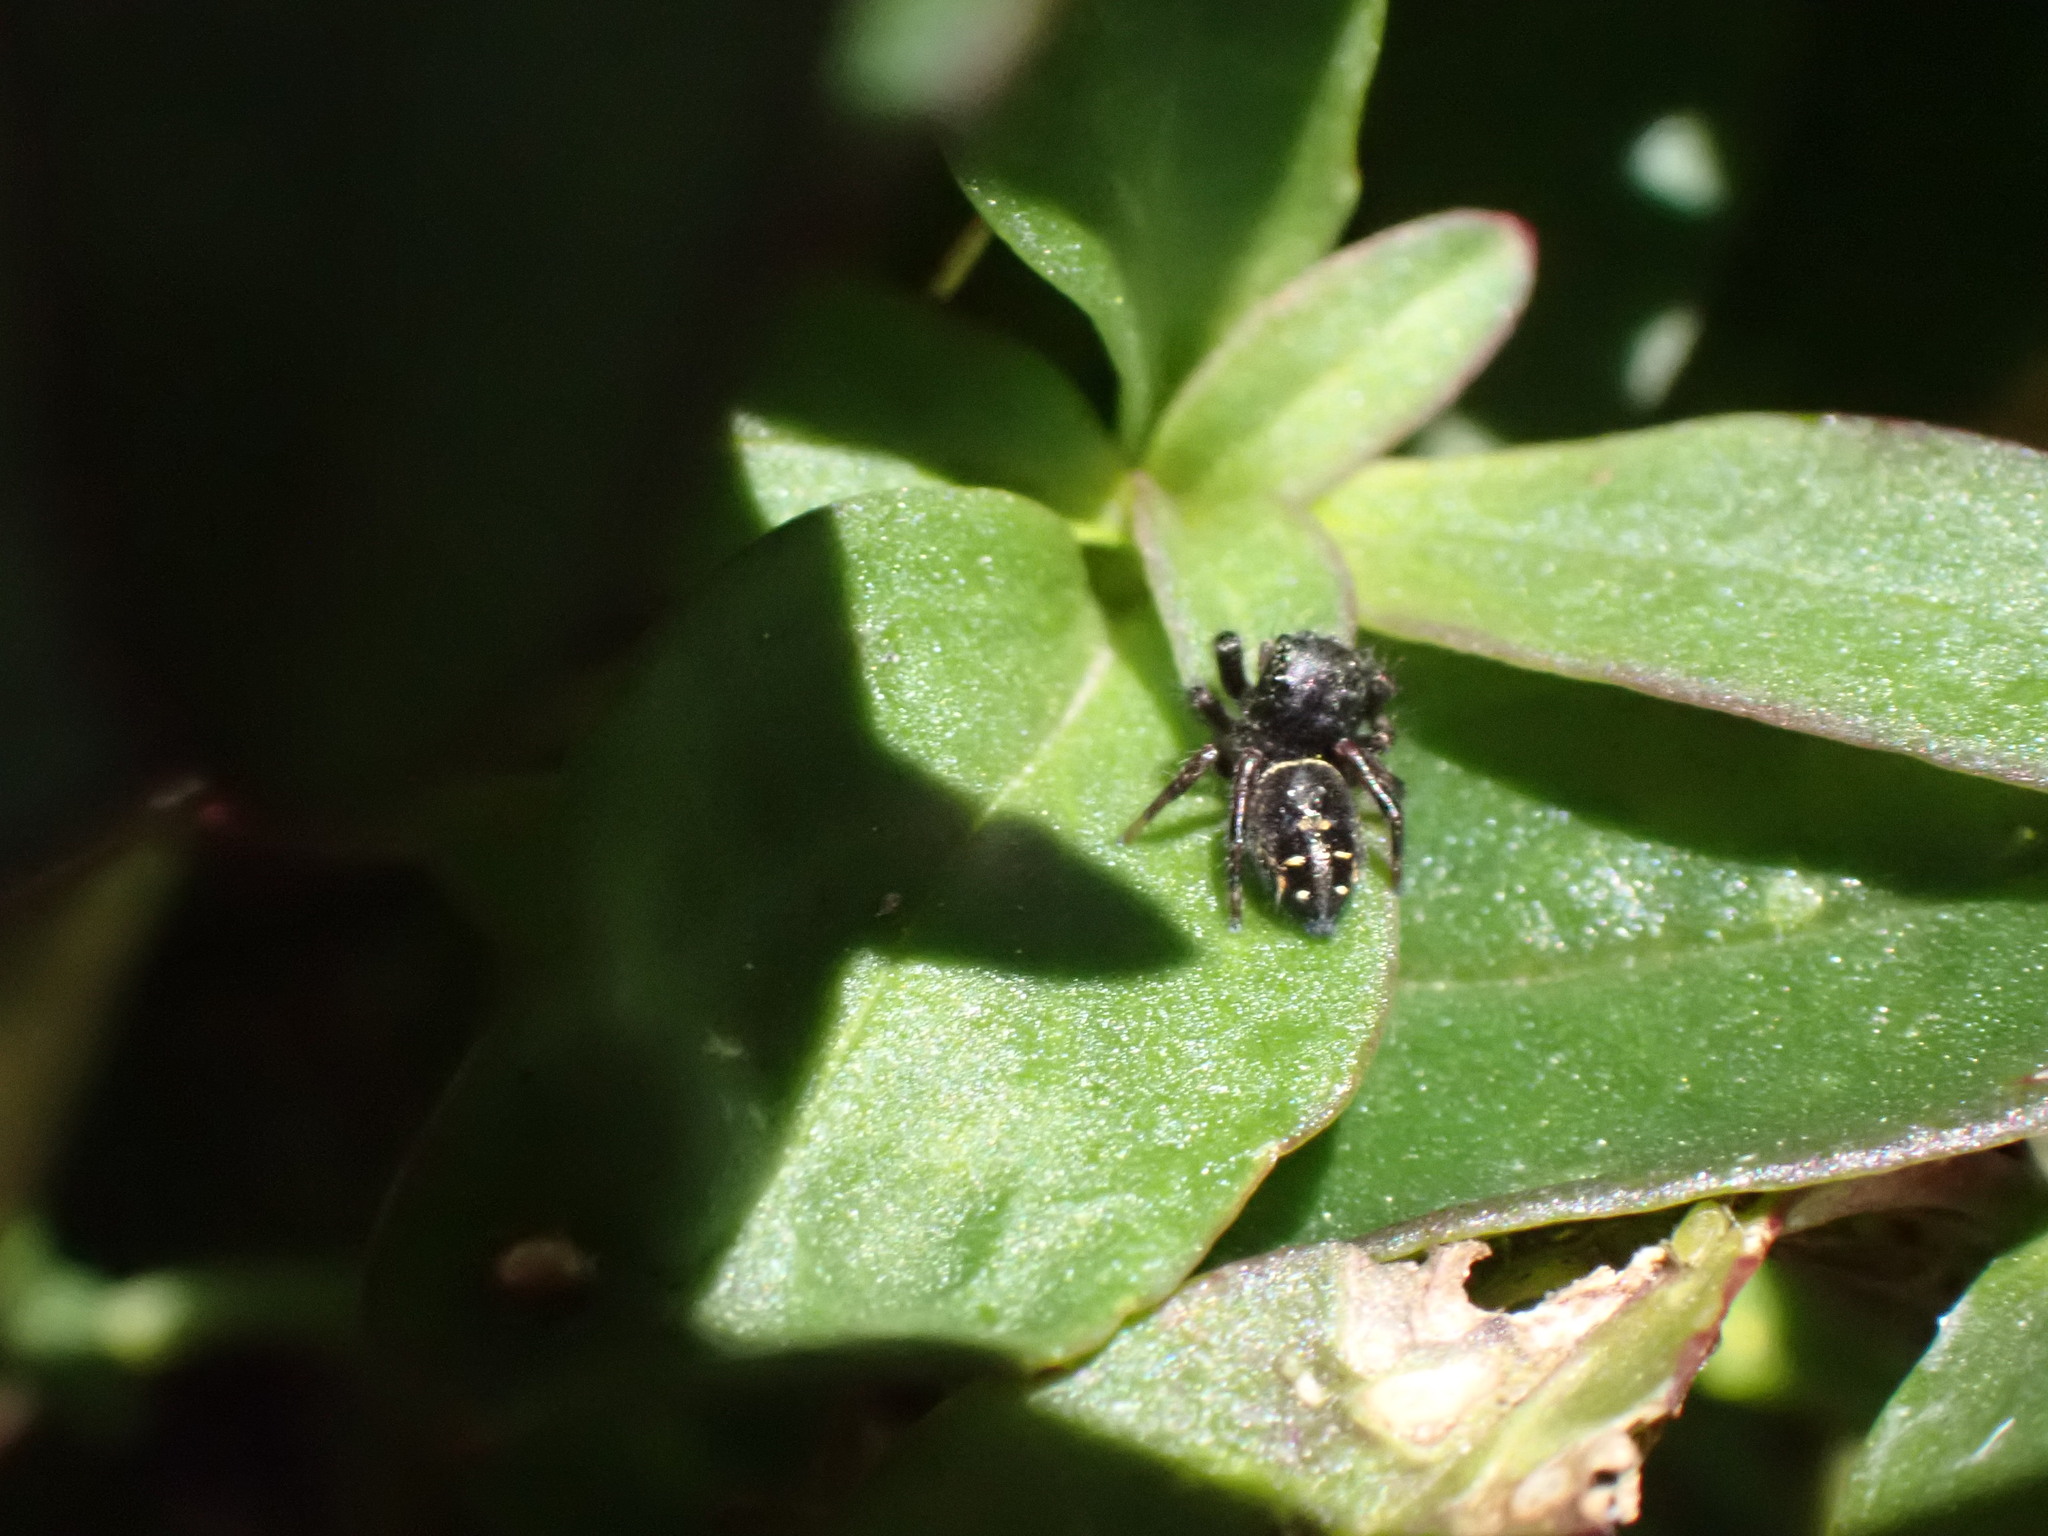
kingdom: Animalia
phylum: Arthropoda
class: Arachnida
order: Araneae
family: Salticidae
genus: Phidippus
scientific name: Phidippus johnsoni
